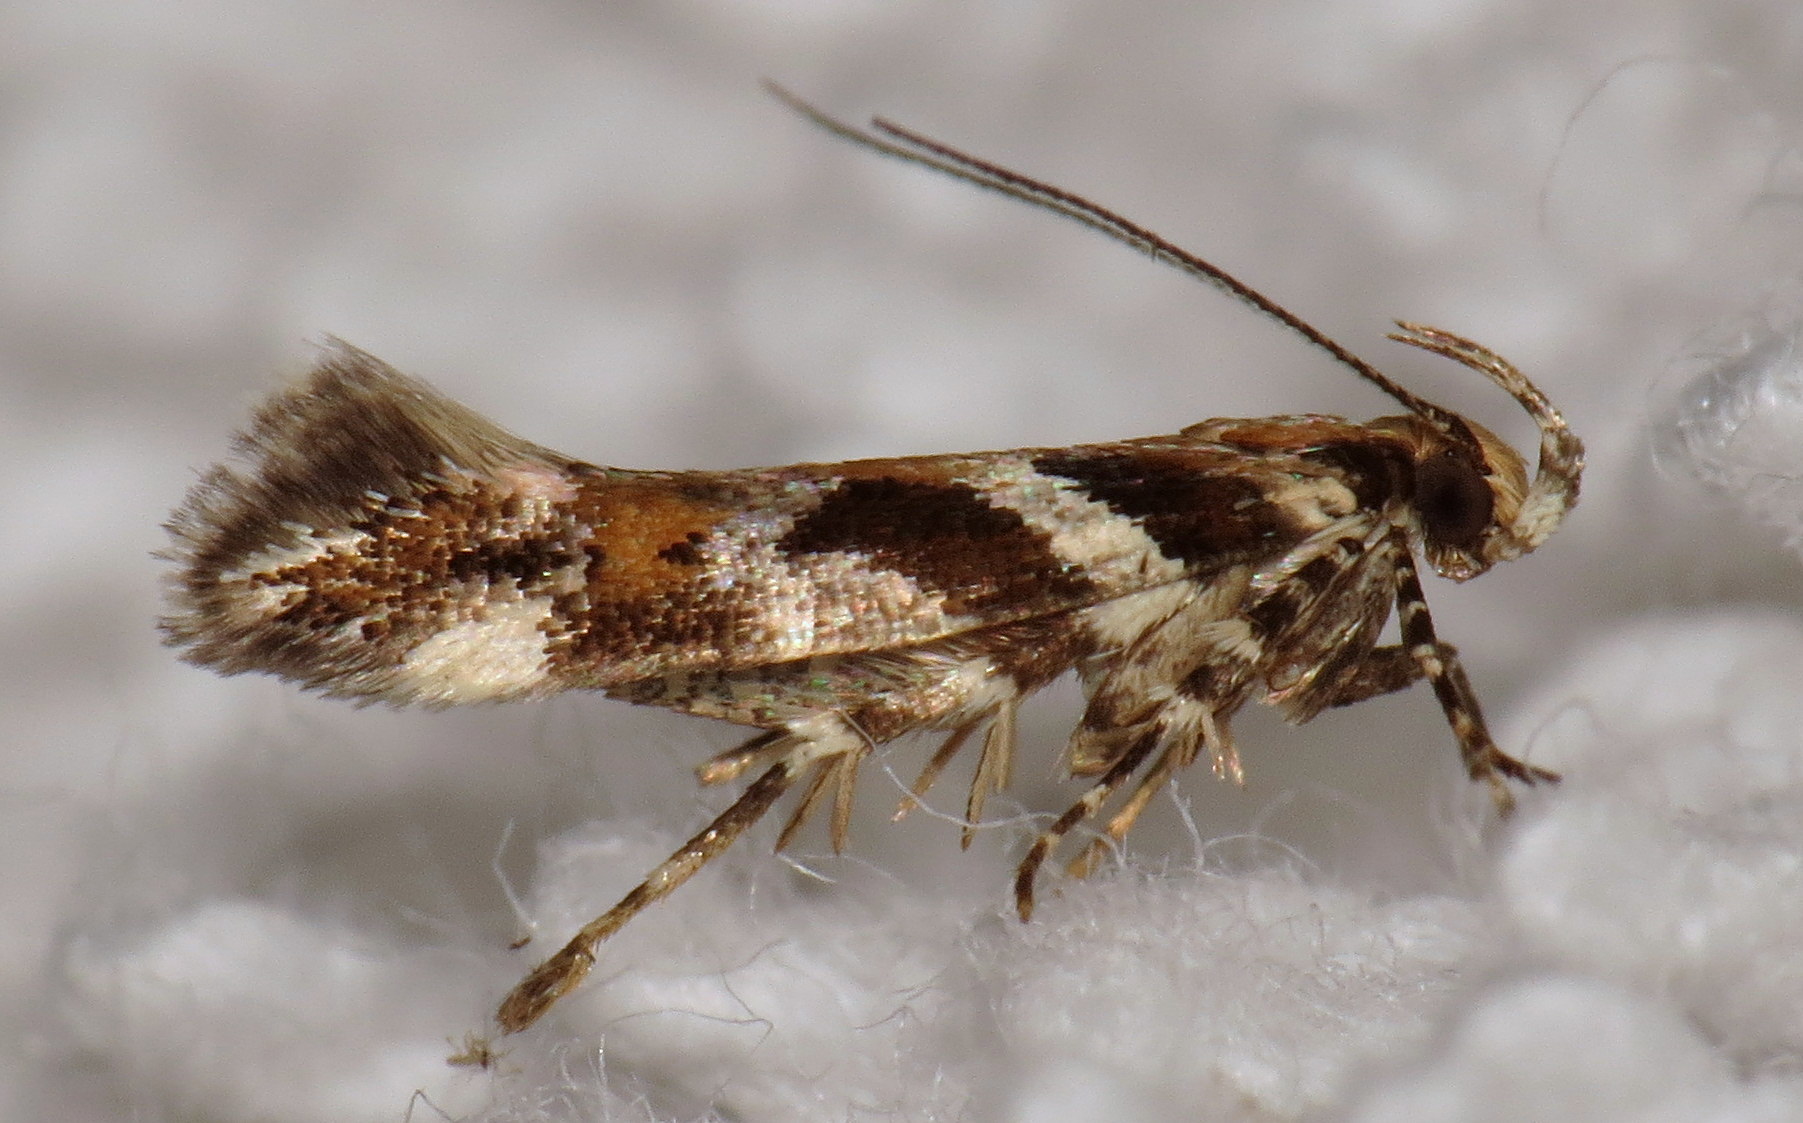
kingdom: Animalia
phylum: Arthropoda
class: Insecta
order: Lepidoptera
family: Gelechiidae
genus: Aristotelia
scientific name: Aristotelia roseosuffusella
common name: Pink-washed aristotelia moth
